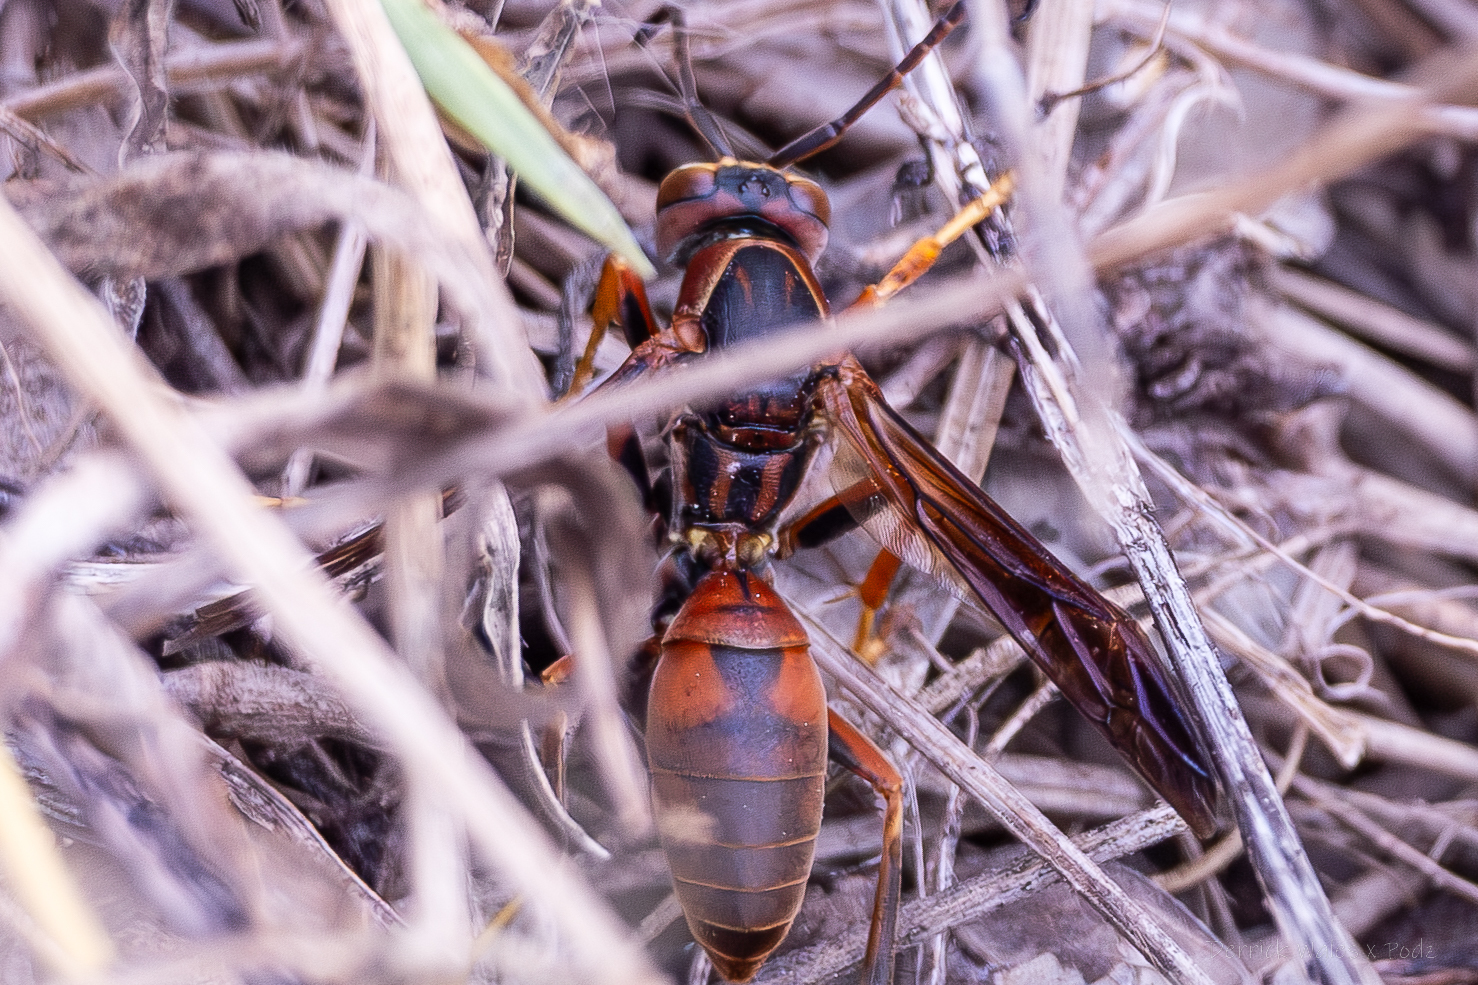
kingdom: Animalia
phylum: Arthropoda
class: Insecta
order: Hymenoptera
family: Eumenidae
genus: Polistes
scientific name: Polistes metricus
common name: Metric paper wasp
